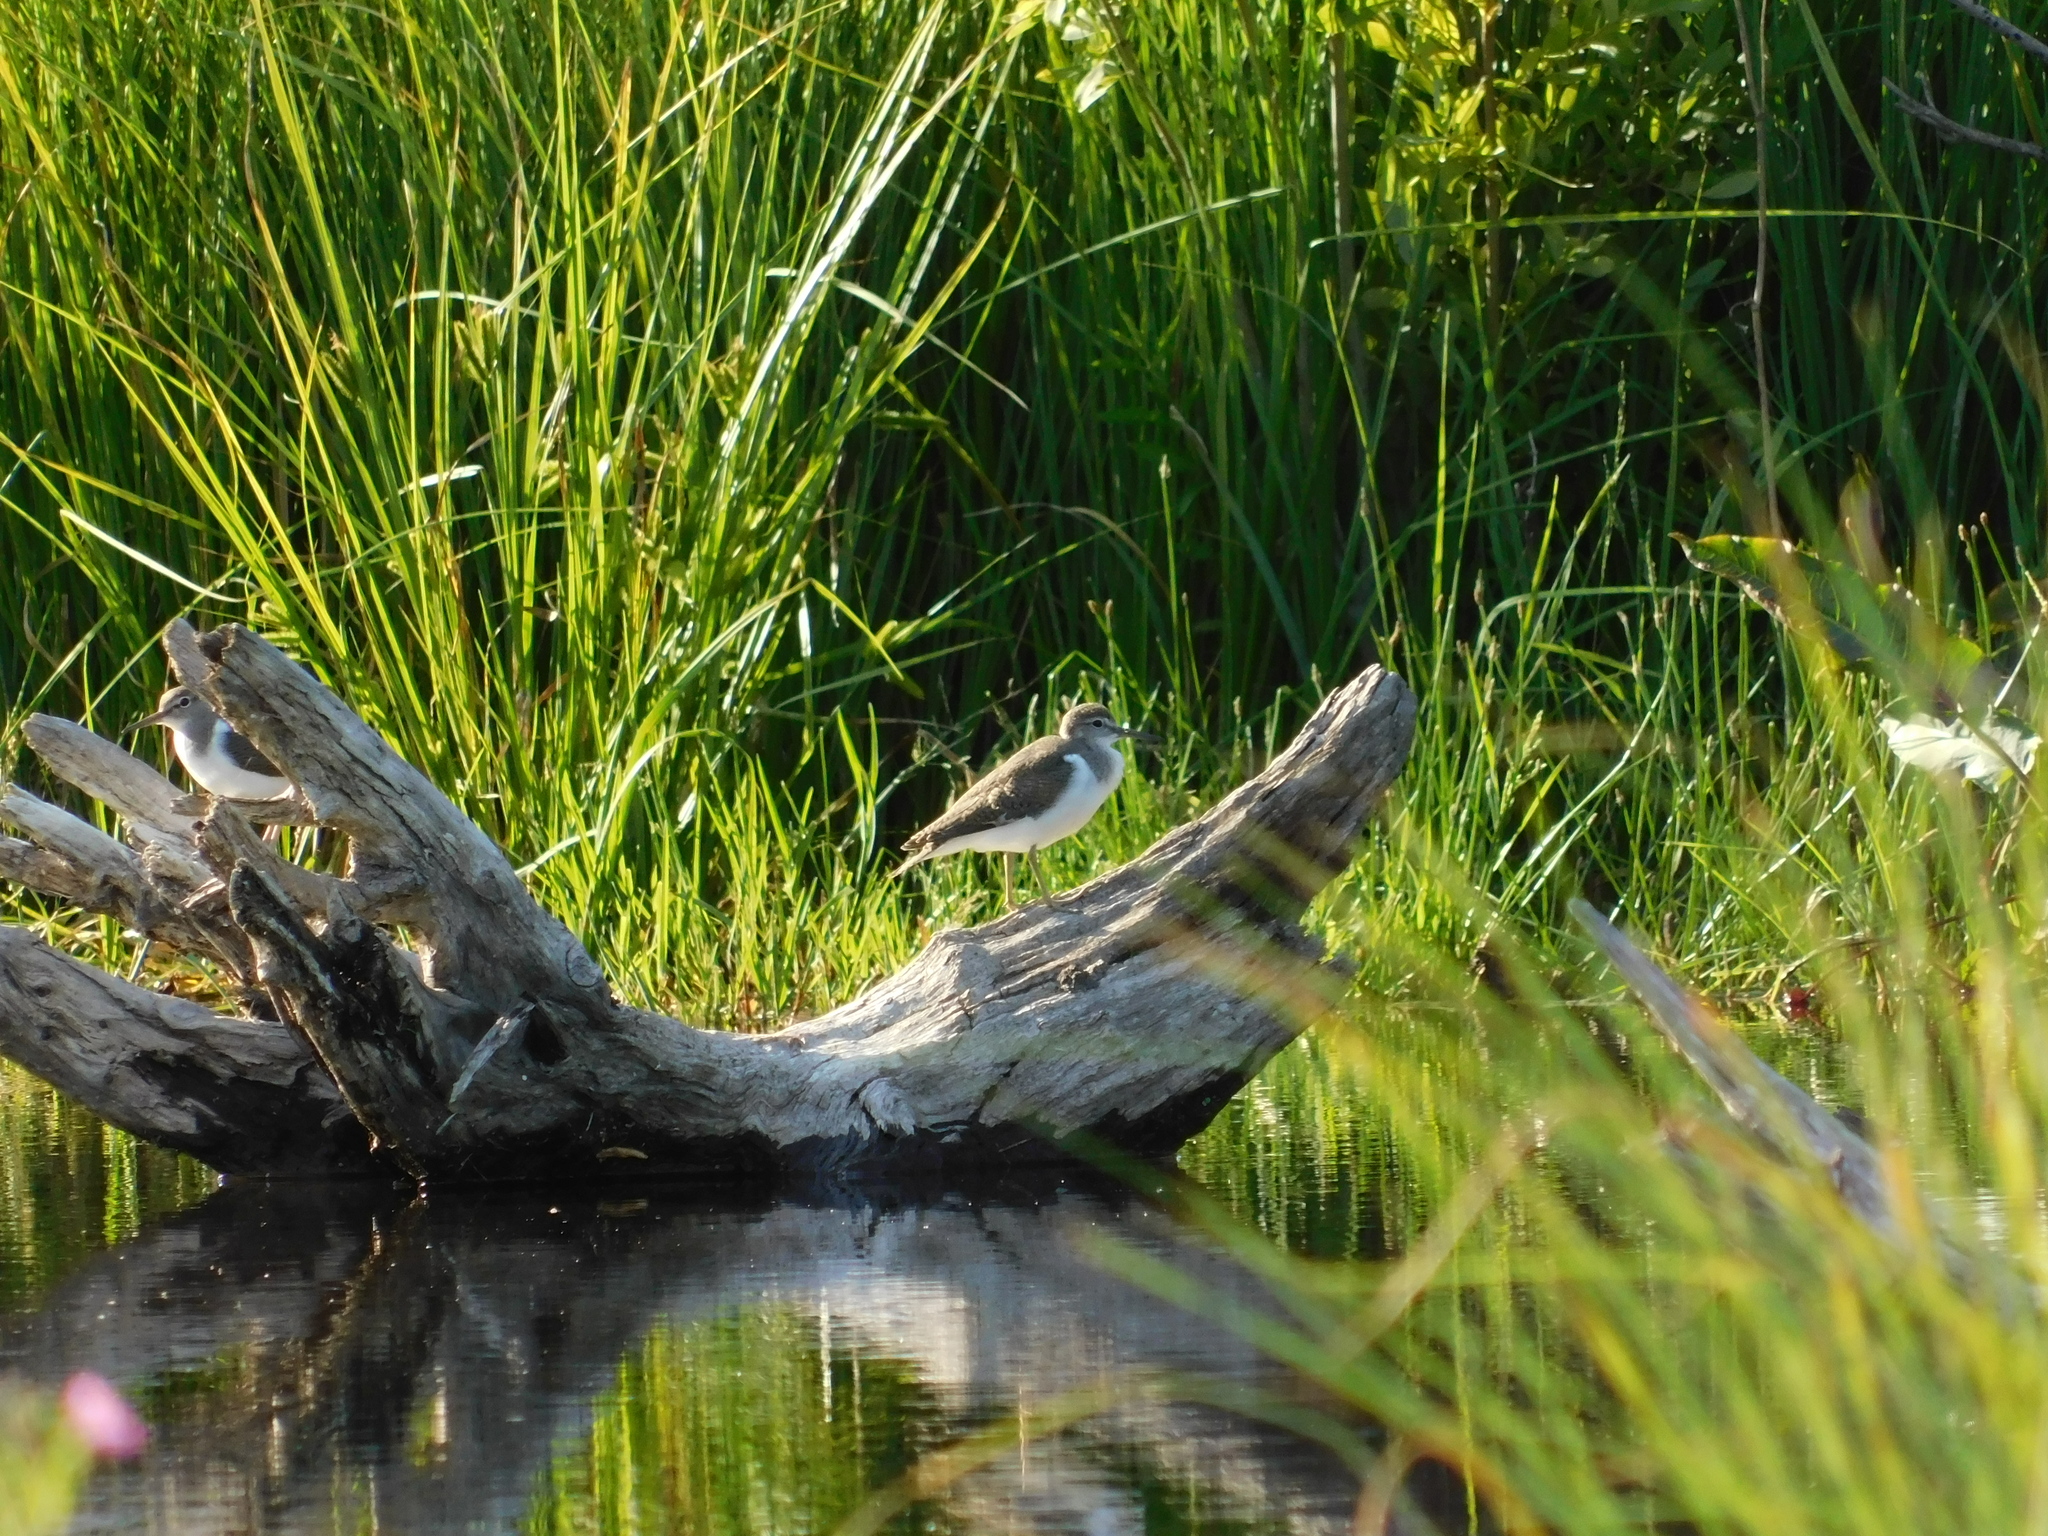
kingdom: Animalia
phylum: Chordata
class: Aves
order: Charadriiformes
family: Scolopacidae
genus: Actitis
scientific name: Actitis hypoleucos
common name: Common sandpiper
